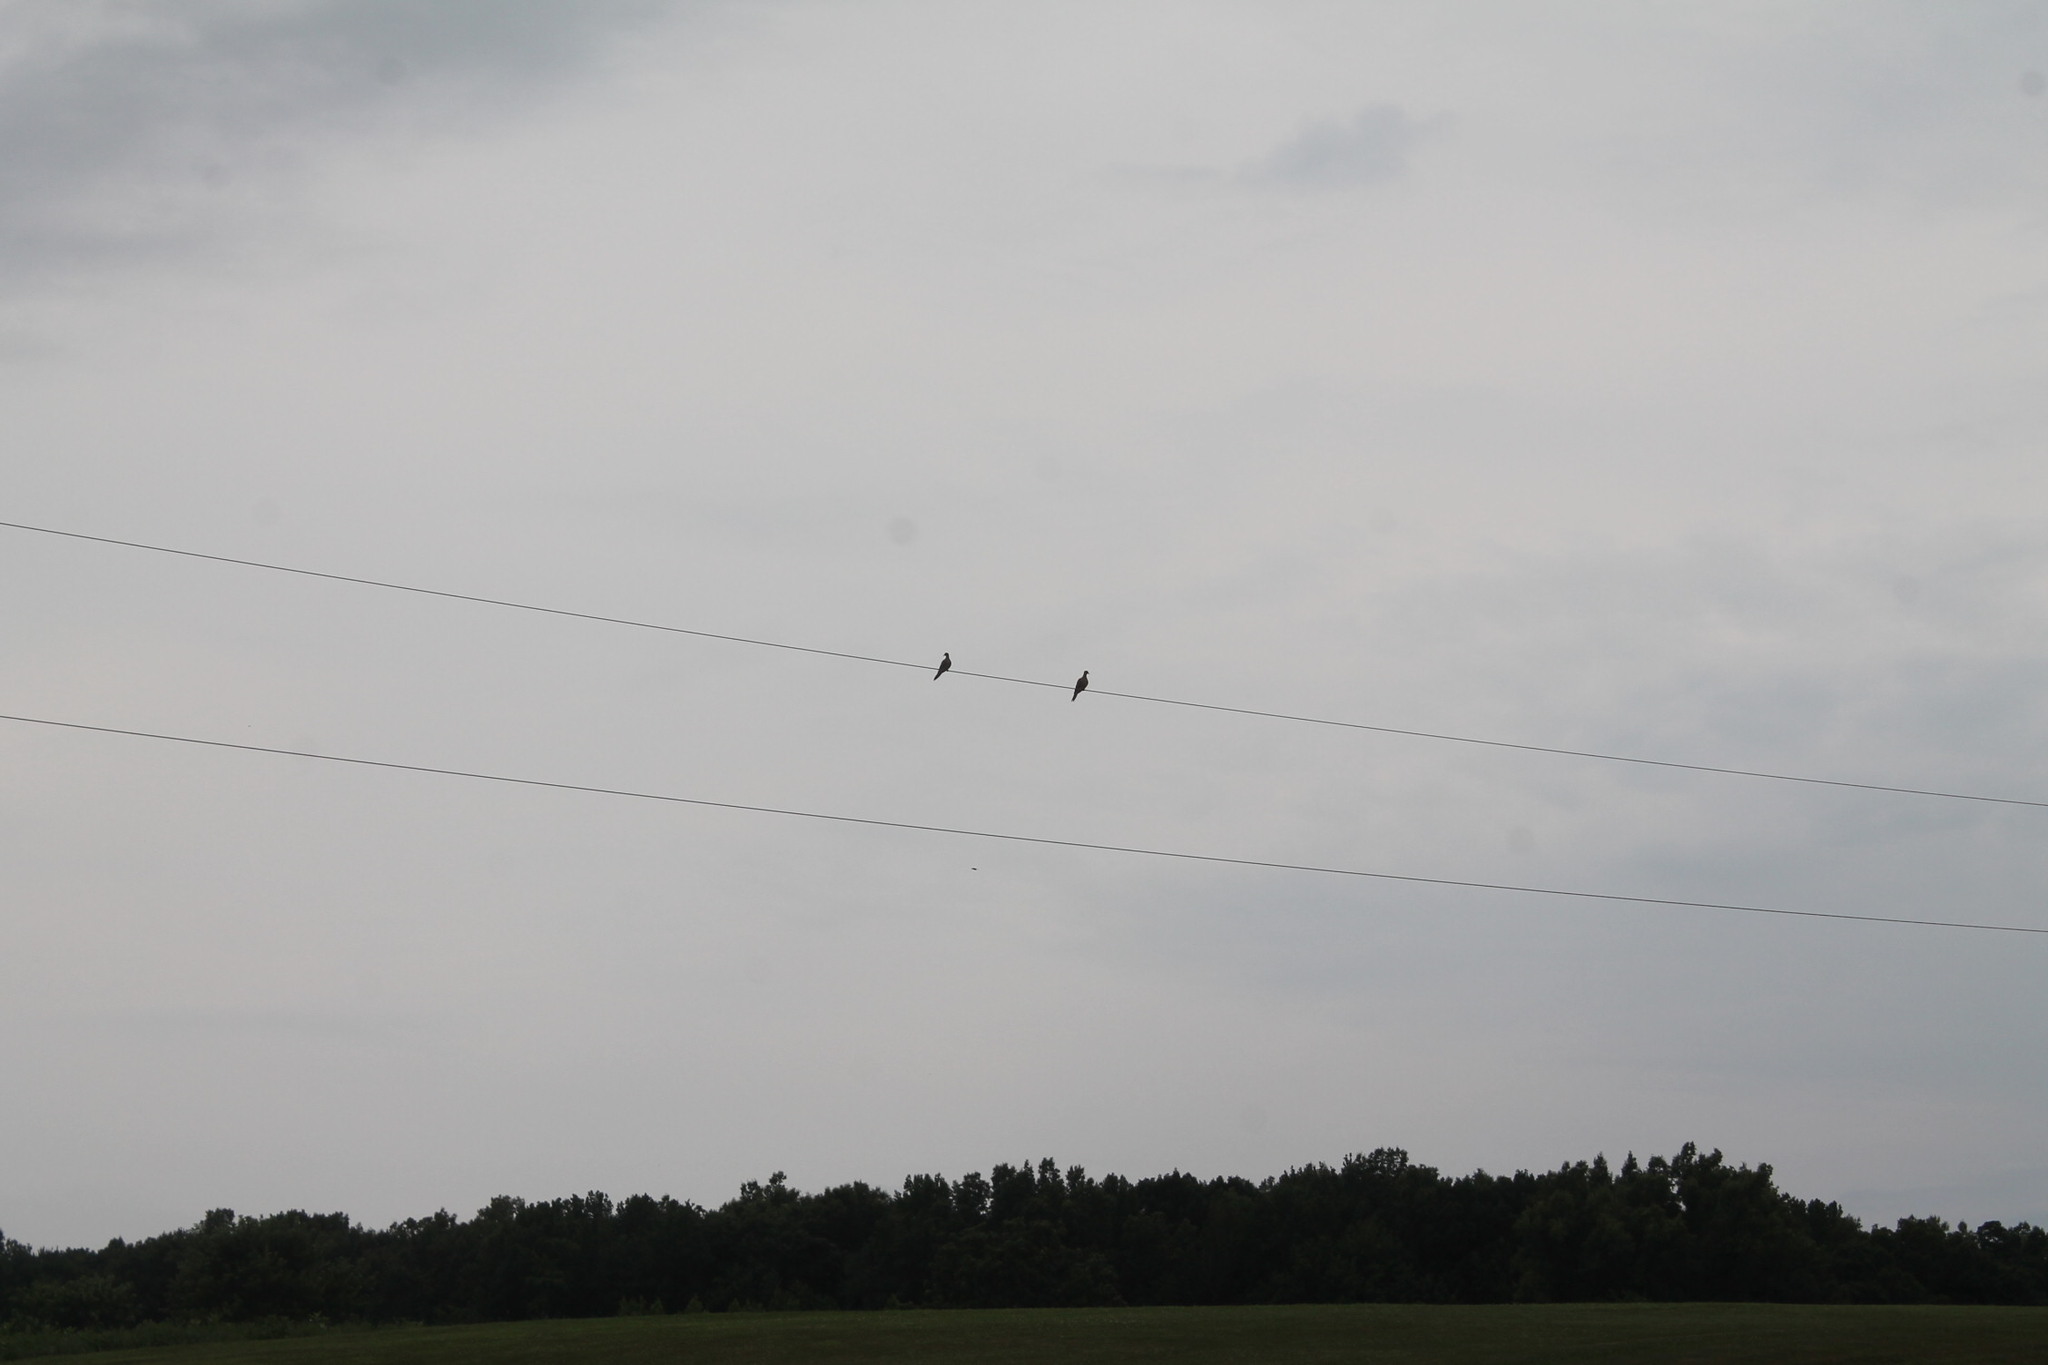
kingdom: Animalia
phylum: Chordata
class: Aves
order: Columbiformes
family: Columbidae
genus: Zenaida
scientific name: Zenaida macroura
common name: Mourning dove
